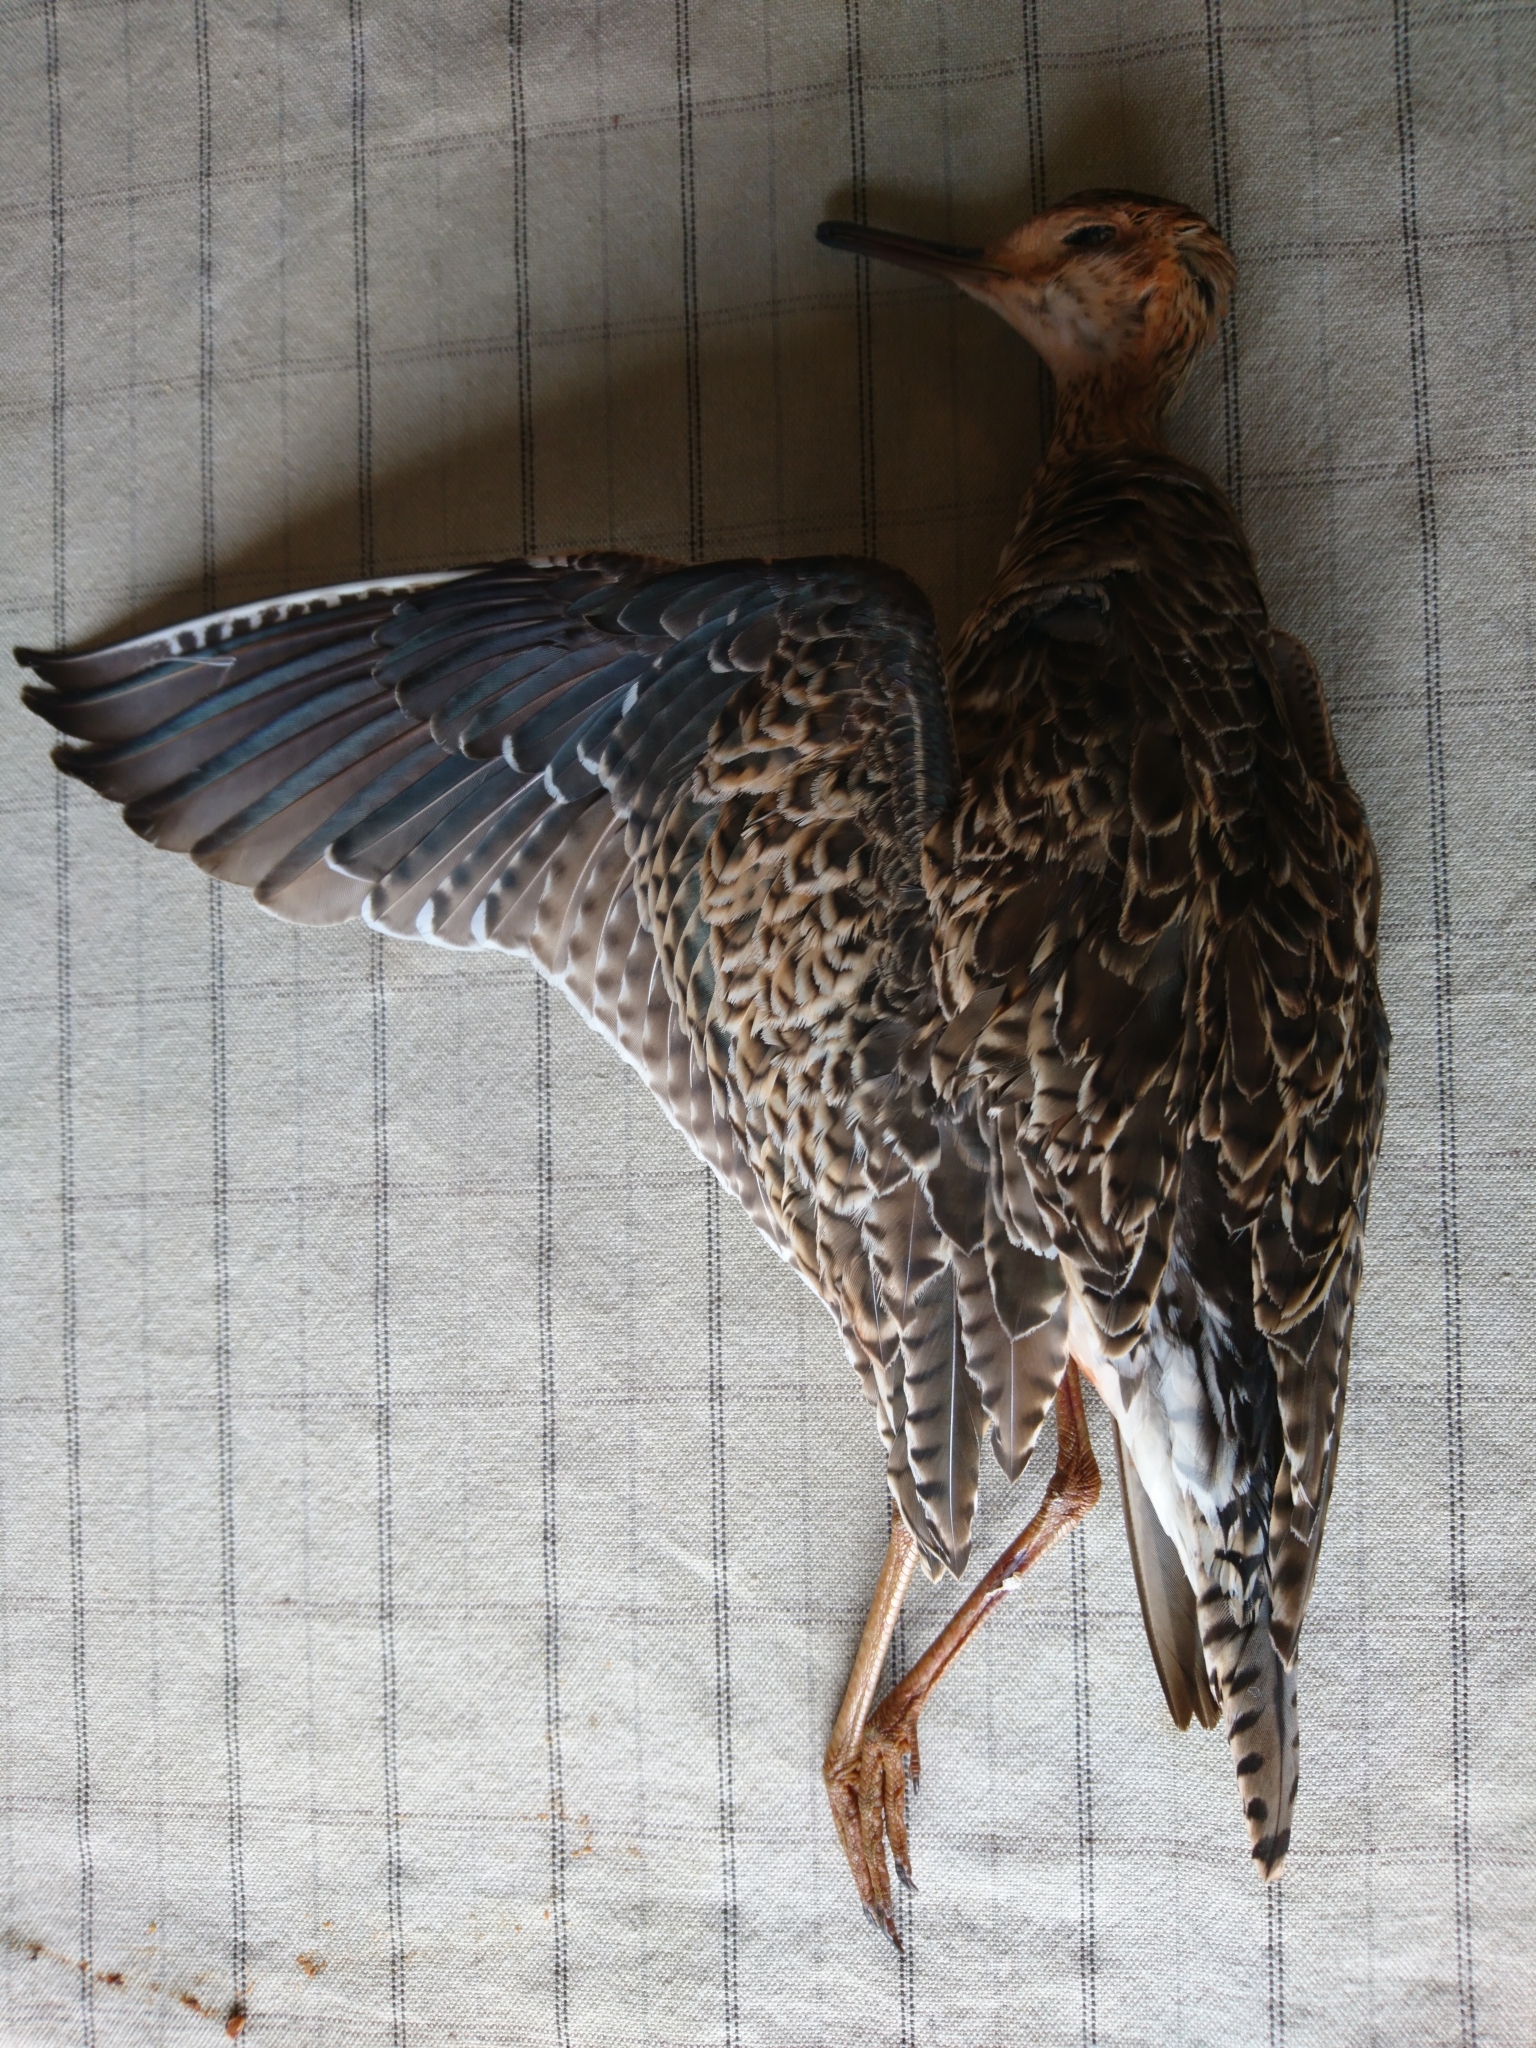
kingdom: Animalia
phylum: Chordata
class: Aves
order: Charadriiformes
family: Scolopacidae
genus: Bartramia
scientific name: Bartramia longicauda
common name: Upland sandpiper
